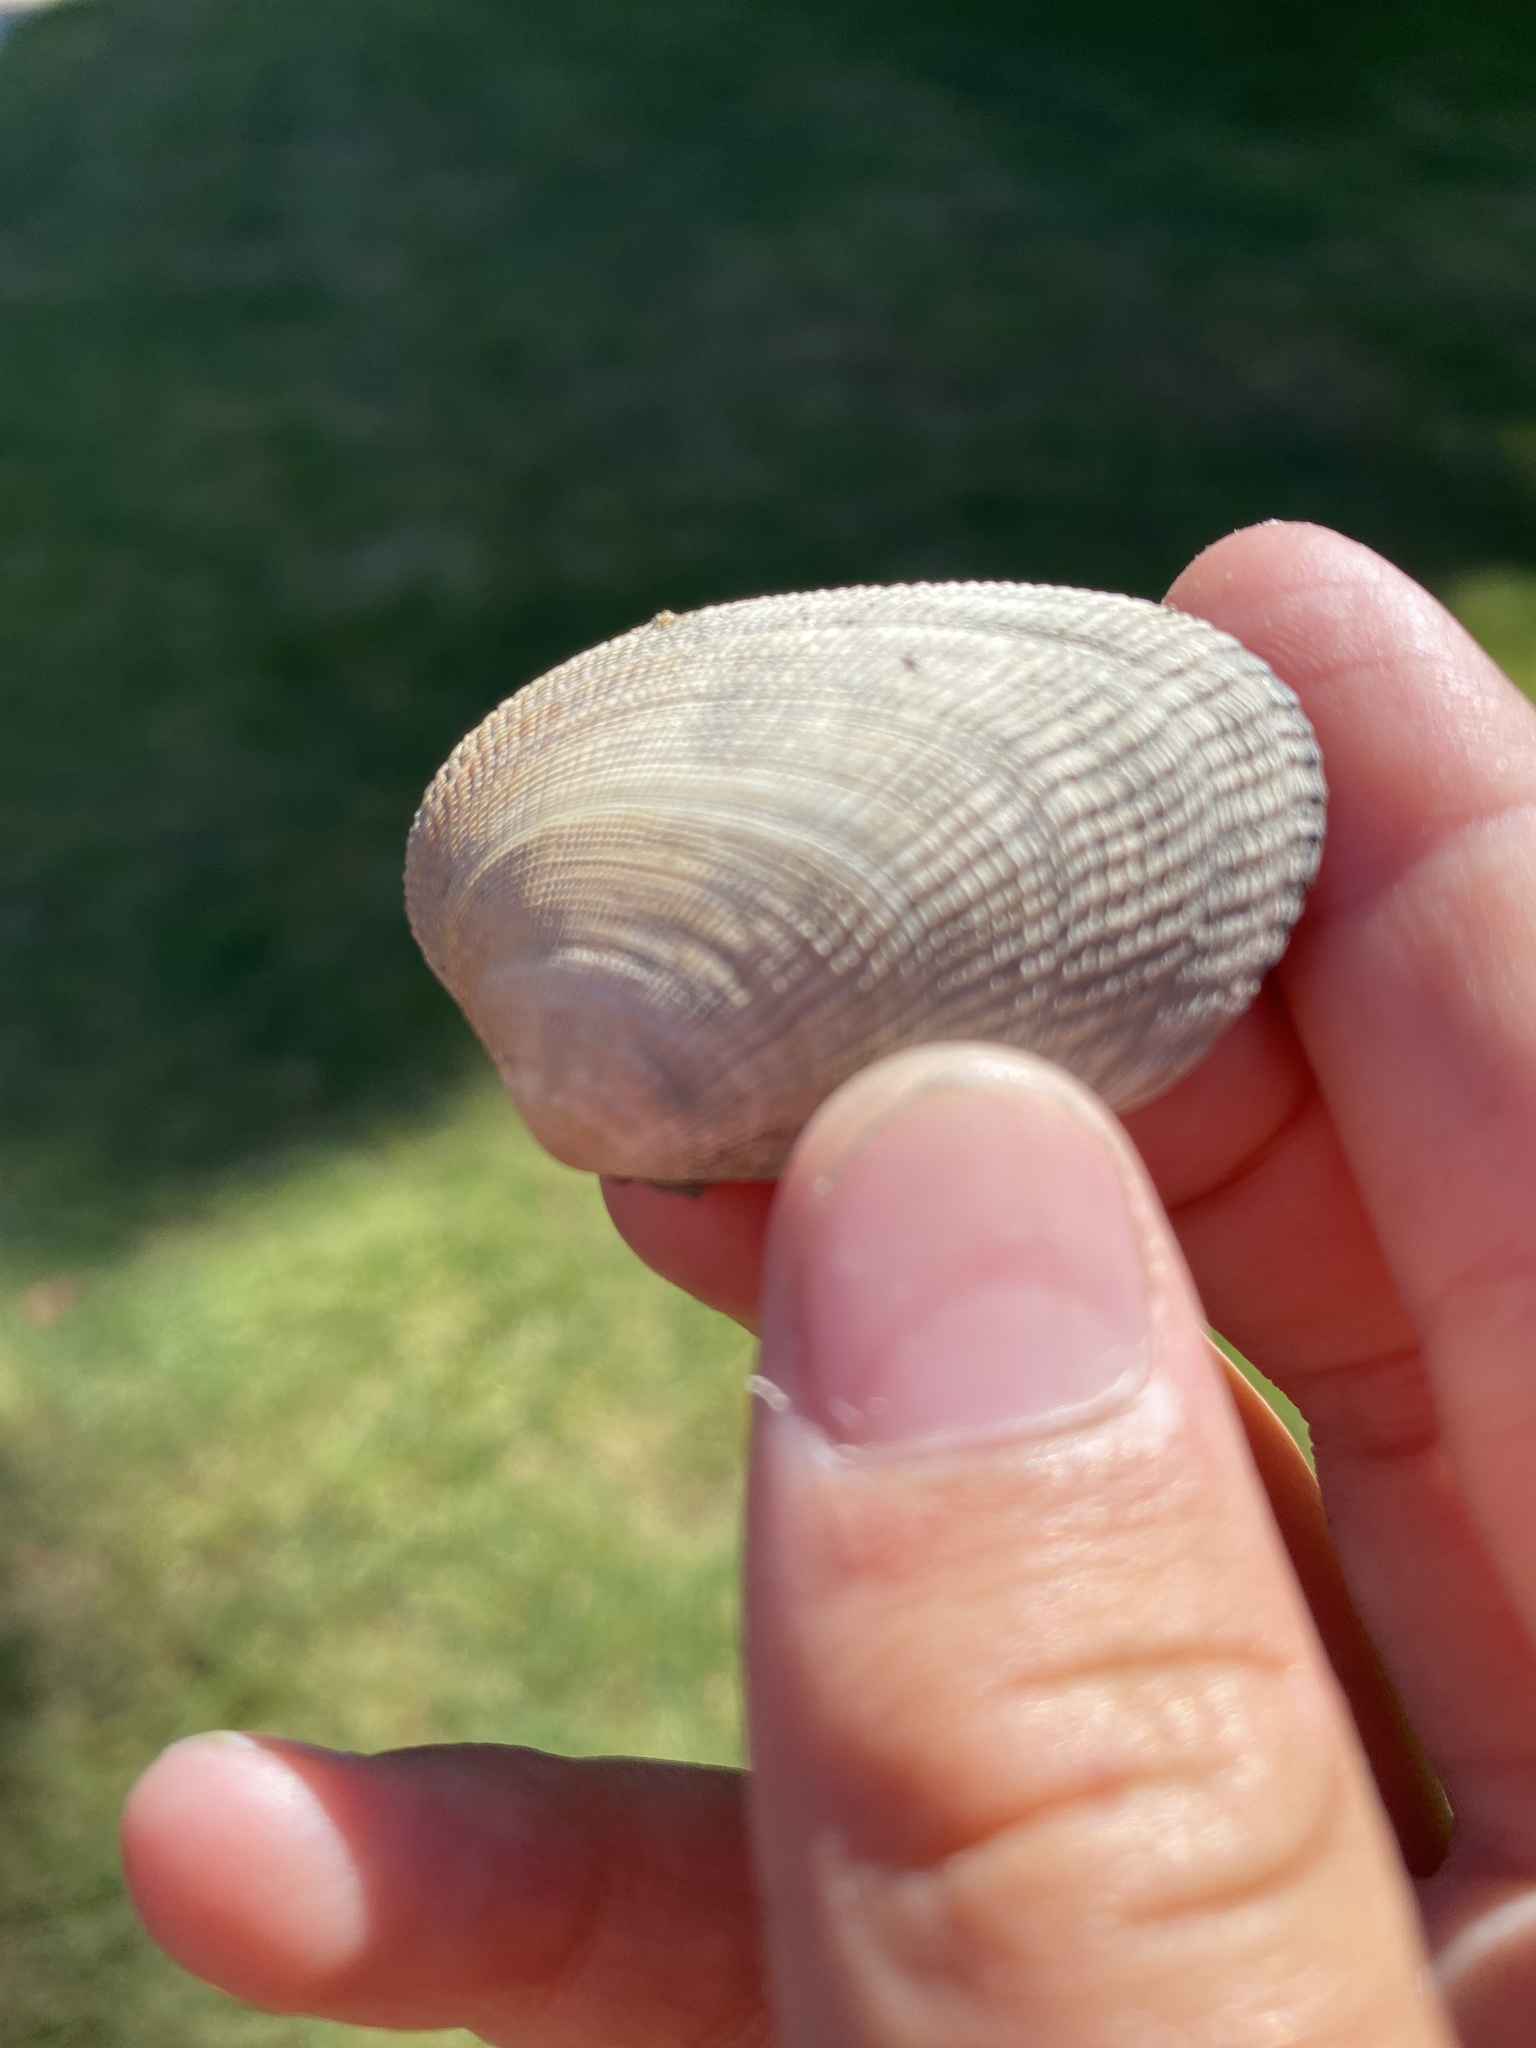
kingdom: Animalia
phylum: Mollusca
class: Bivalvia
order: Venerida
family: Veneridae
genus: Ruditapes
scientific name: Ruditapes philippinarum
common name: Manila clam
